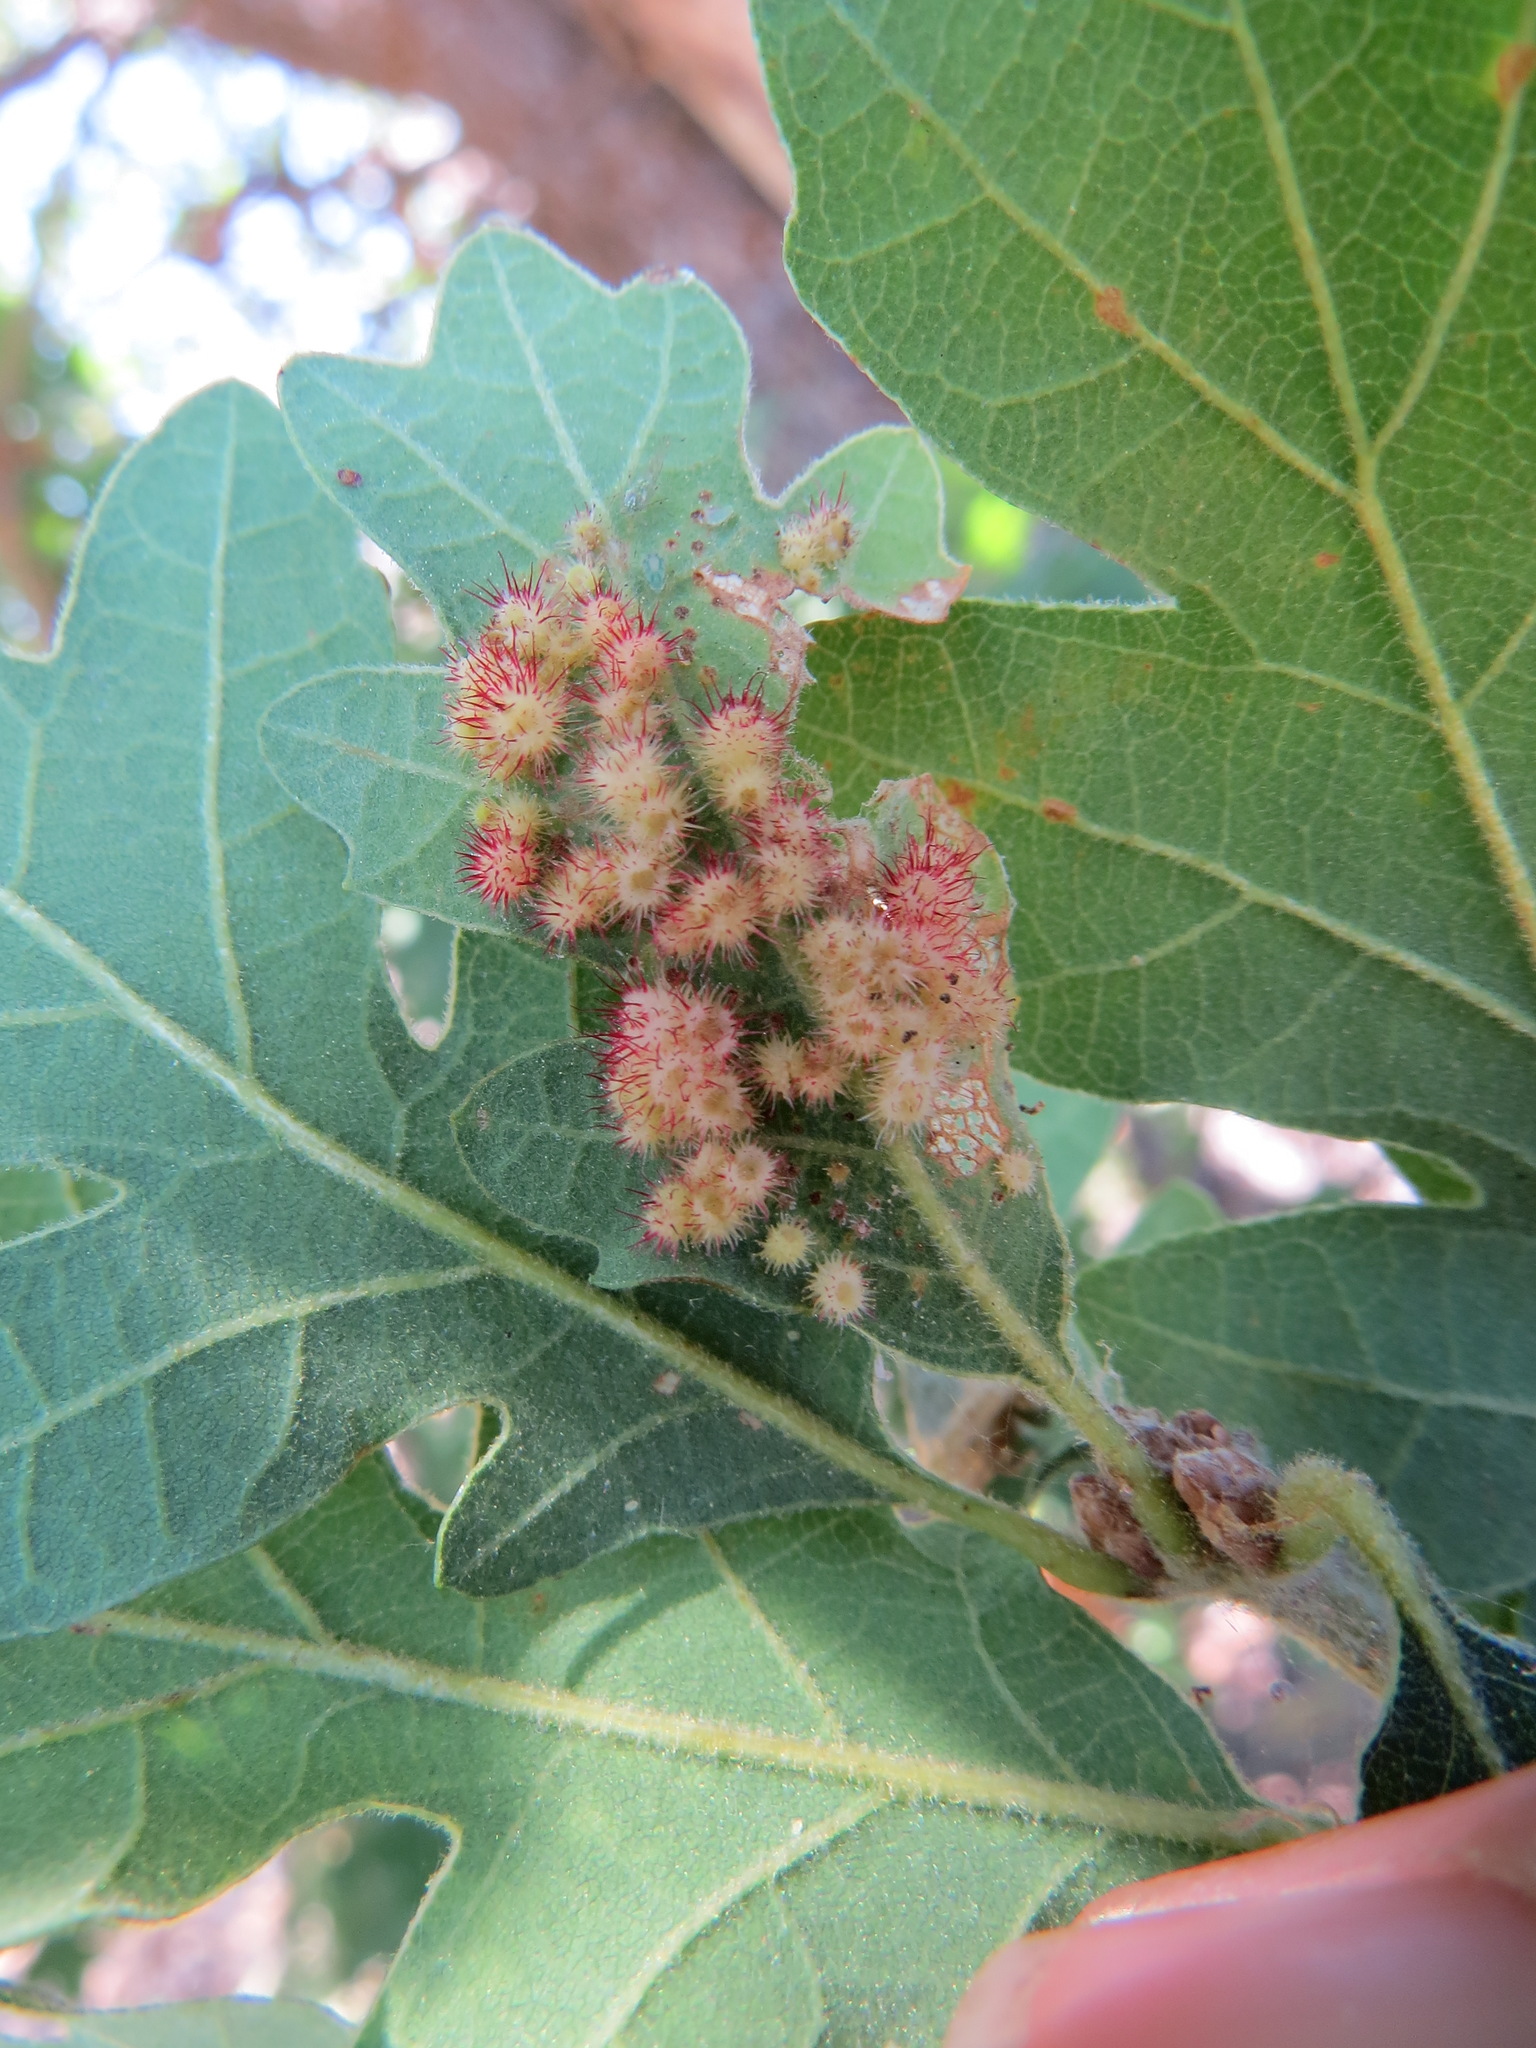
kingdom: Animalia
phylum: Arthropoda
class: Insecta
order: Hymenoptera
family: Cynipidae
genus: Andricus
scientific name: Andricus
